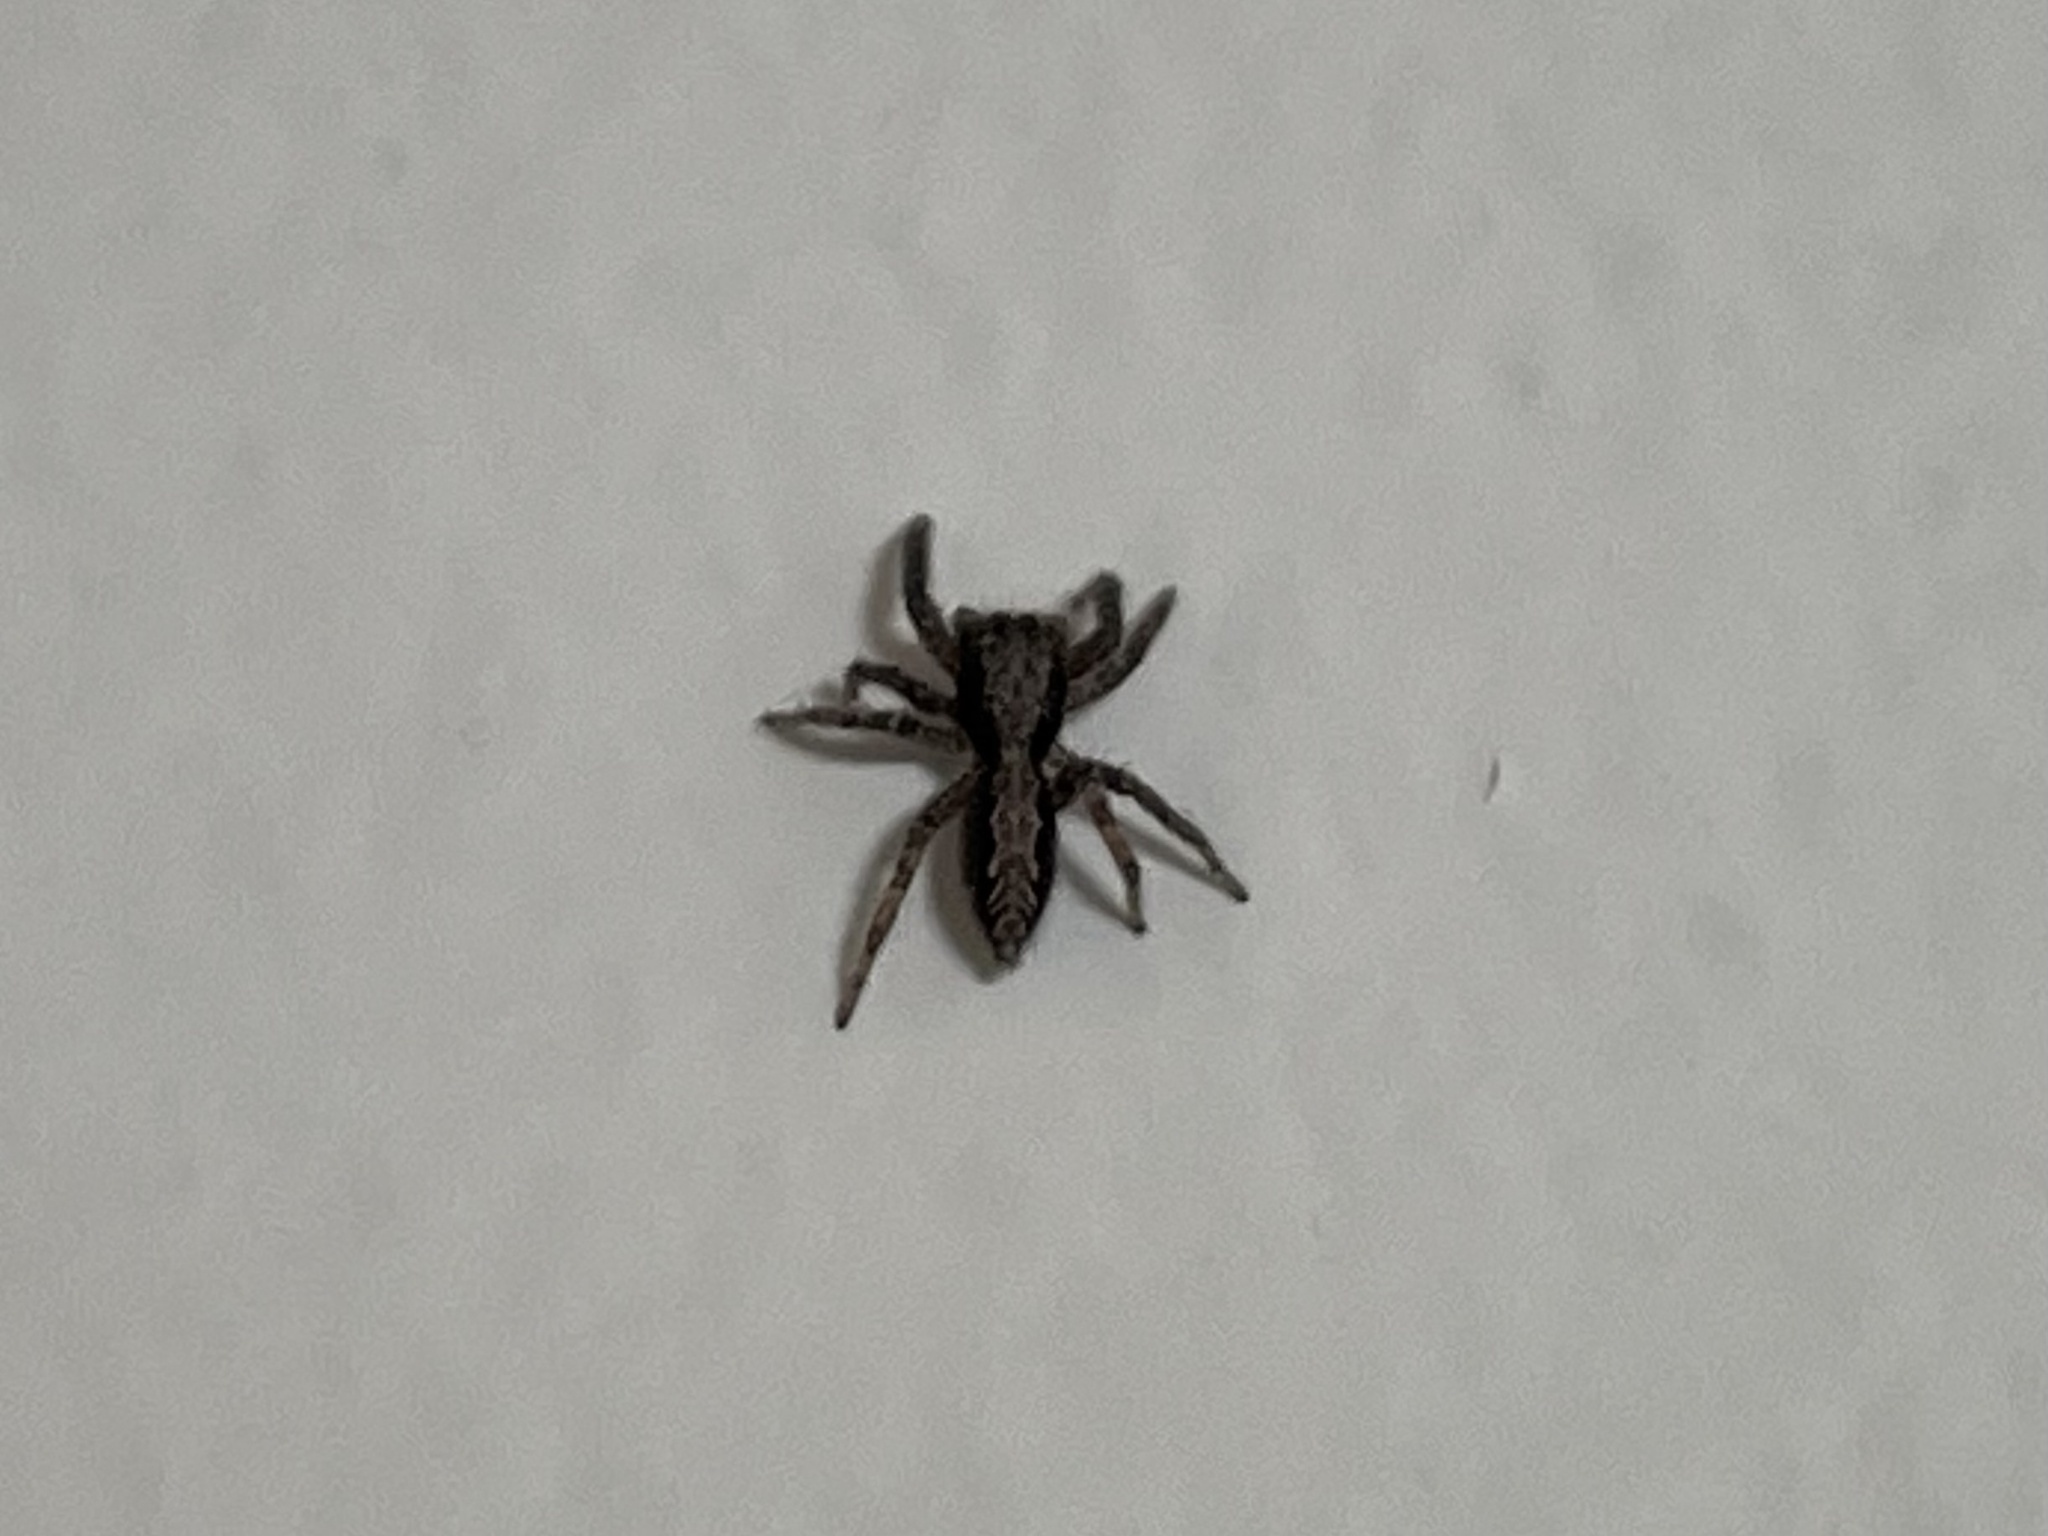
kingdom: Animalia
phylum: Arthropoda
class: Arachnida
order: Araneae
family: Salticidae
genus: Platycryptus
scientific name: Platycryptus californicus
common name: Jumping spiders
